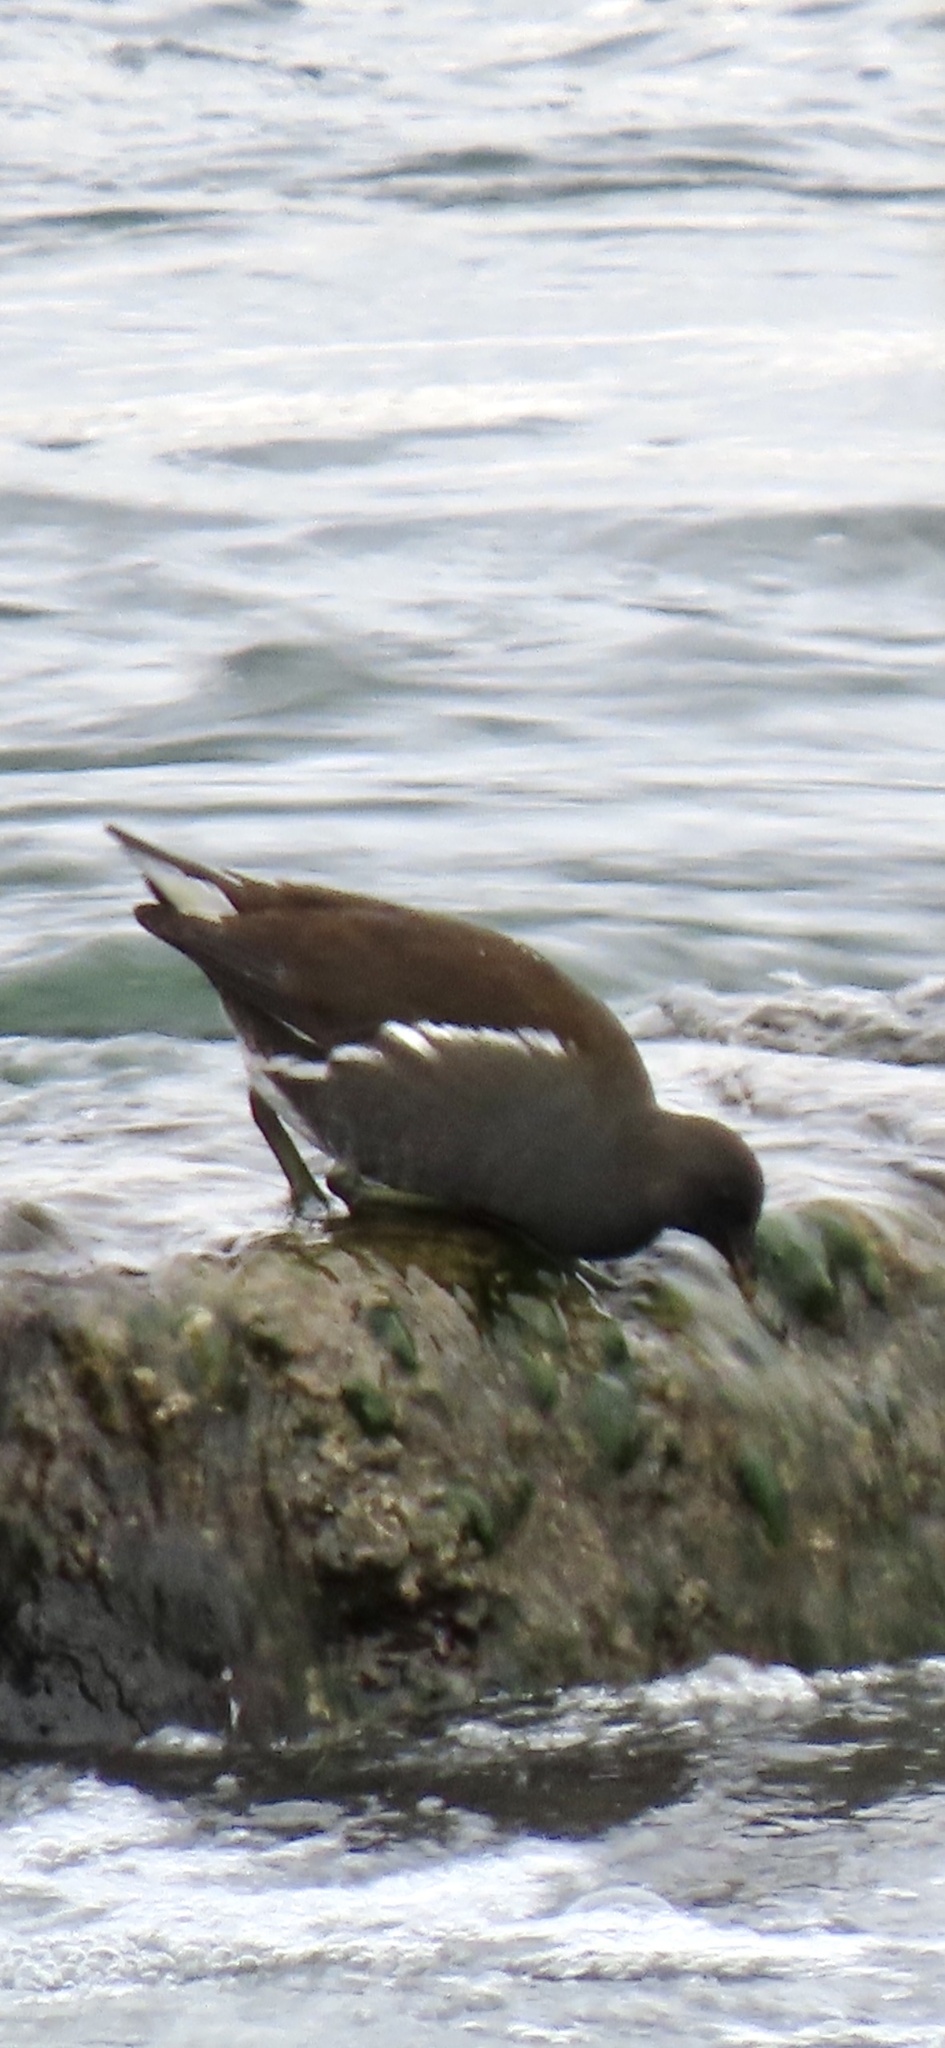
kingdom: Animalia
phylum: Chordata
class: Aves
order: Gruiformes
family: Rallidae
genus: Gallinula
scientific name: Gallinula chloropus
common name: Common moorhen
